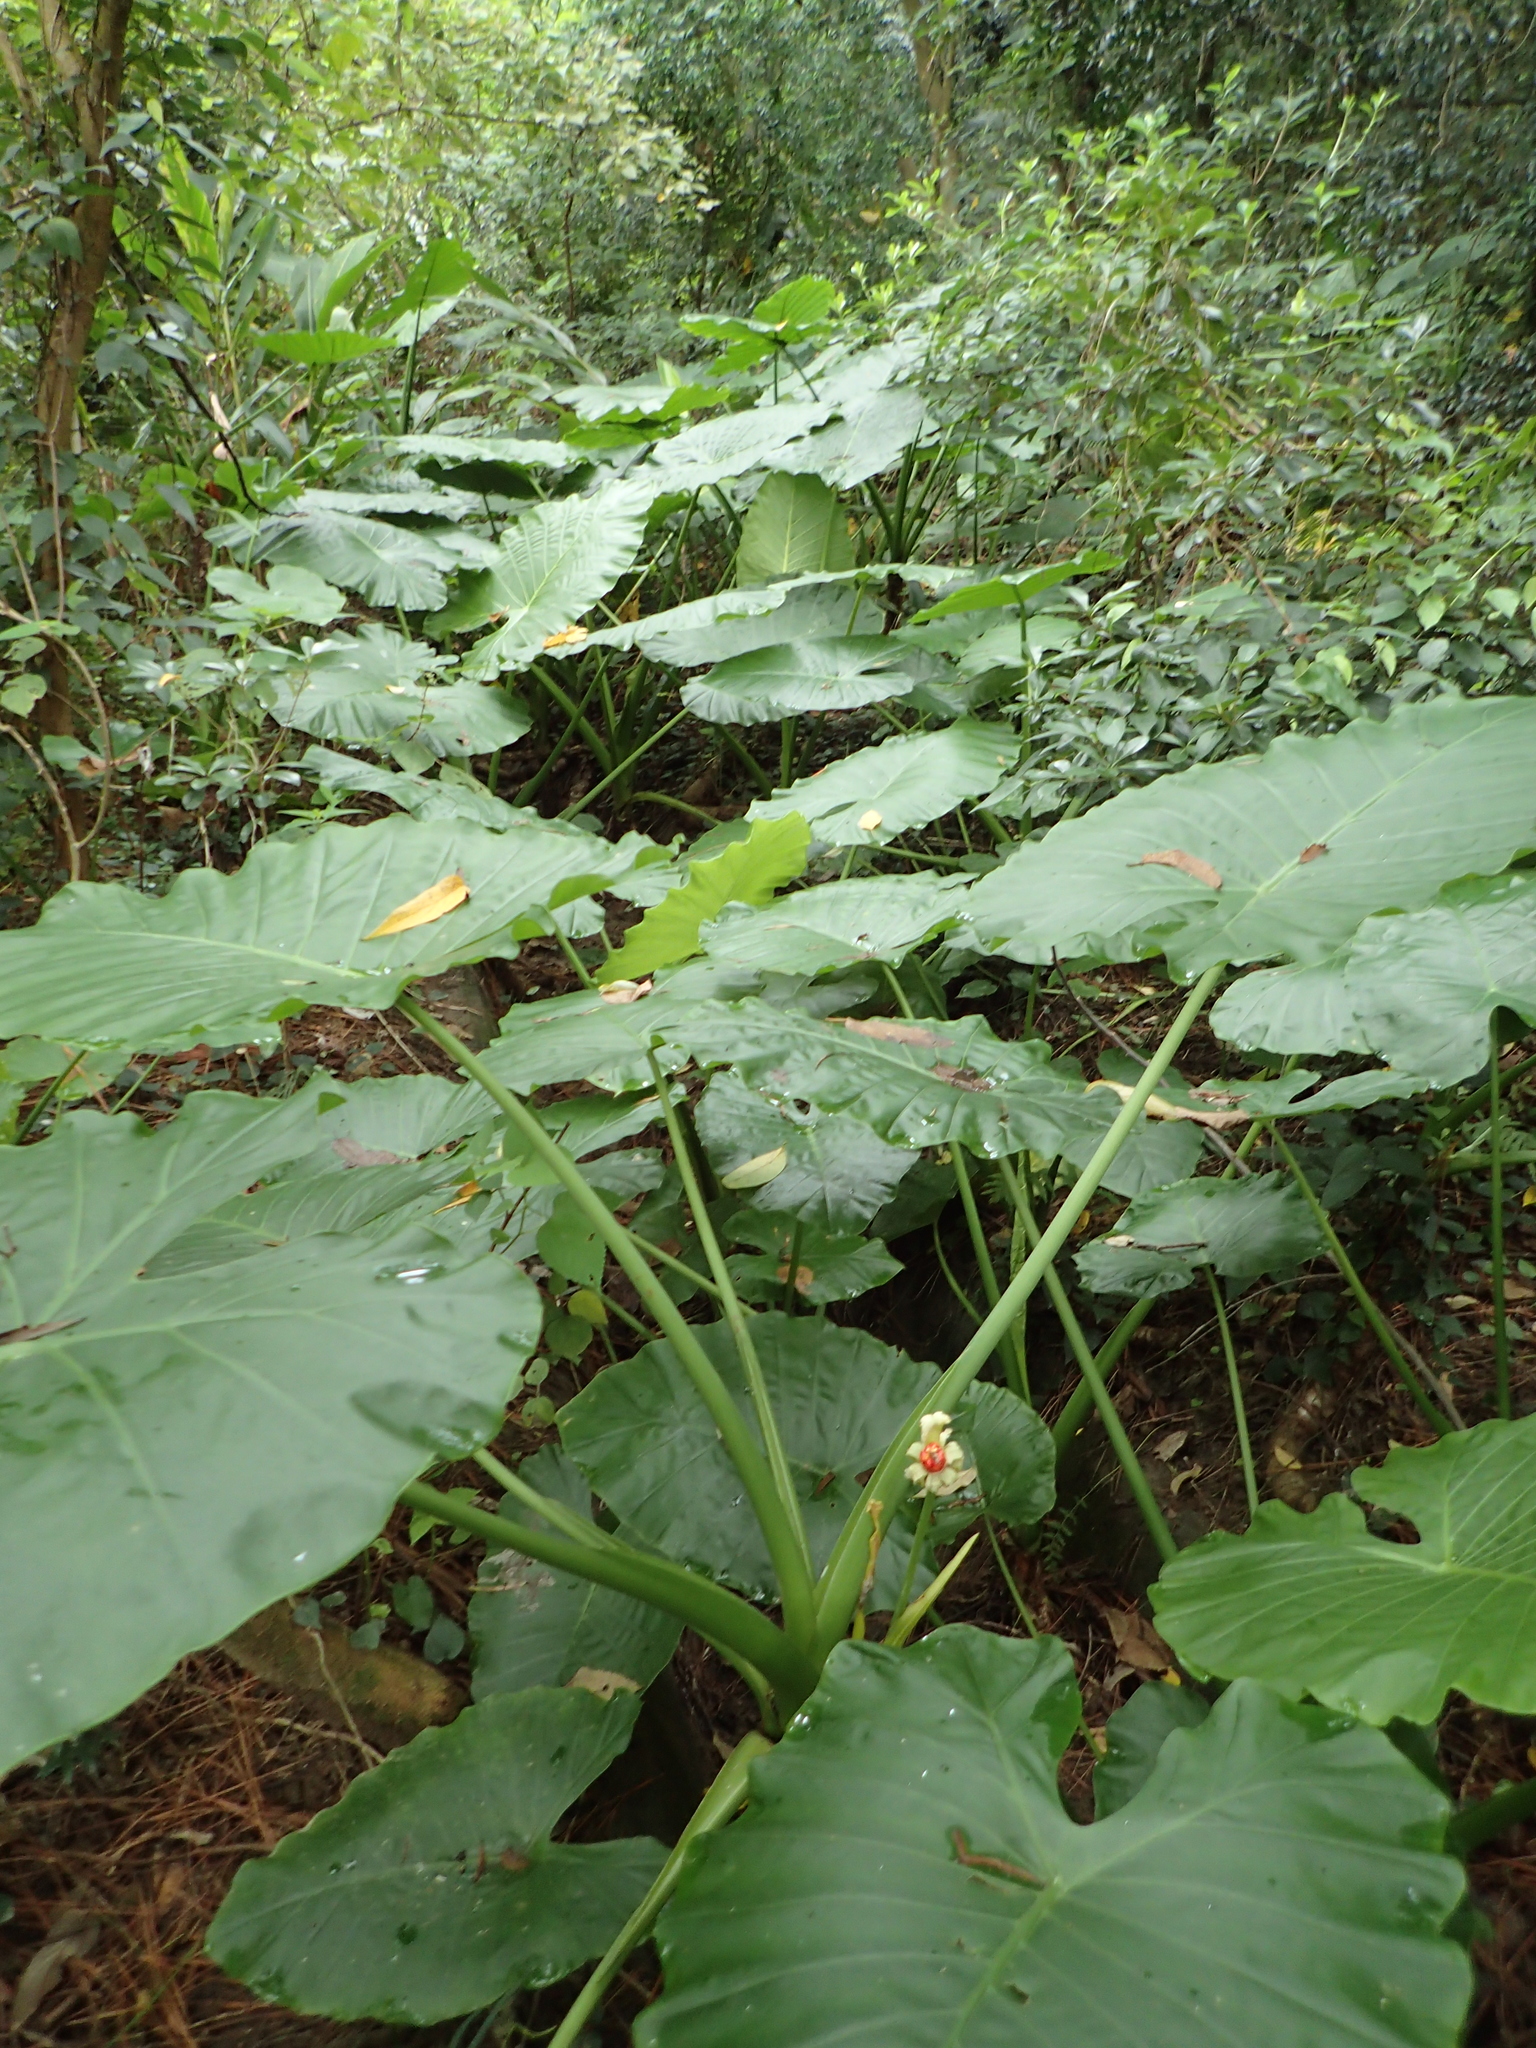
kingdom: Plantae
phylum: Tracheophyta
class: Liliopsida
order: Alismatales
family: Araceae
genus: Alocasia
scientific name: Alocasia odora
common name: Asian taro
